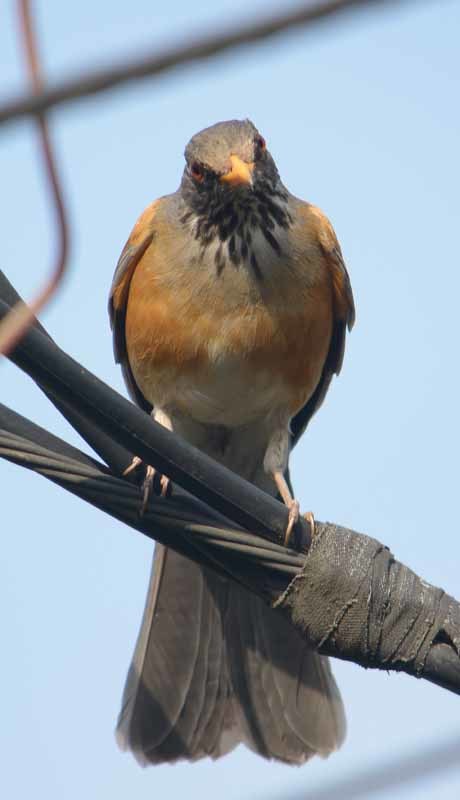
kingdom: Animalia
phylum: Chordata
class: Aves
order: Passeriformes
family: Turdidae
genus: Turdus
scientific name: Turdus rufopalliatus
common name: Rufous-backed robin
